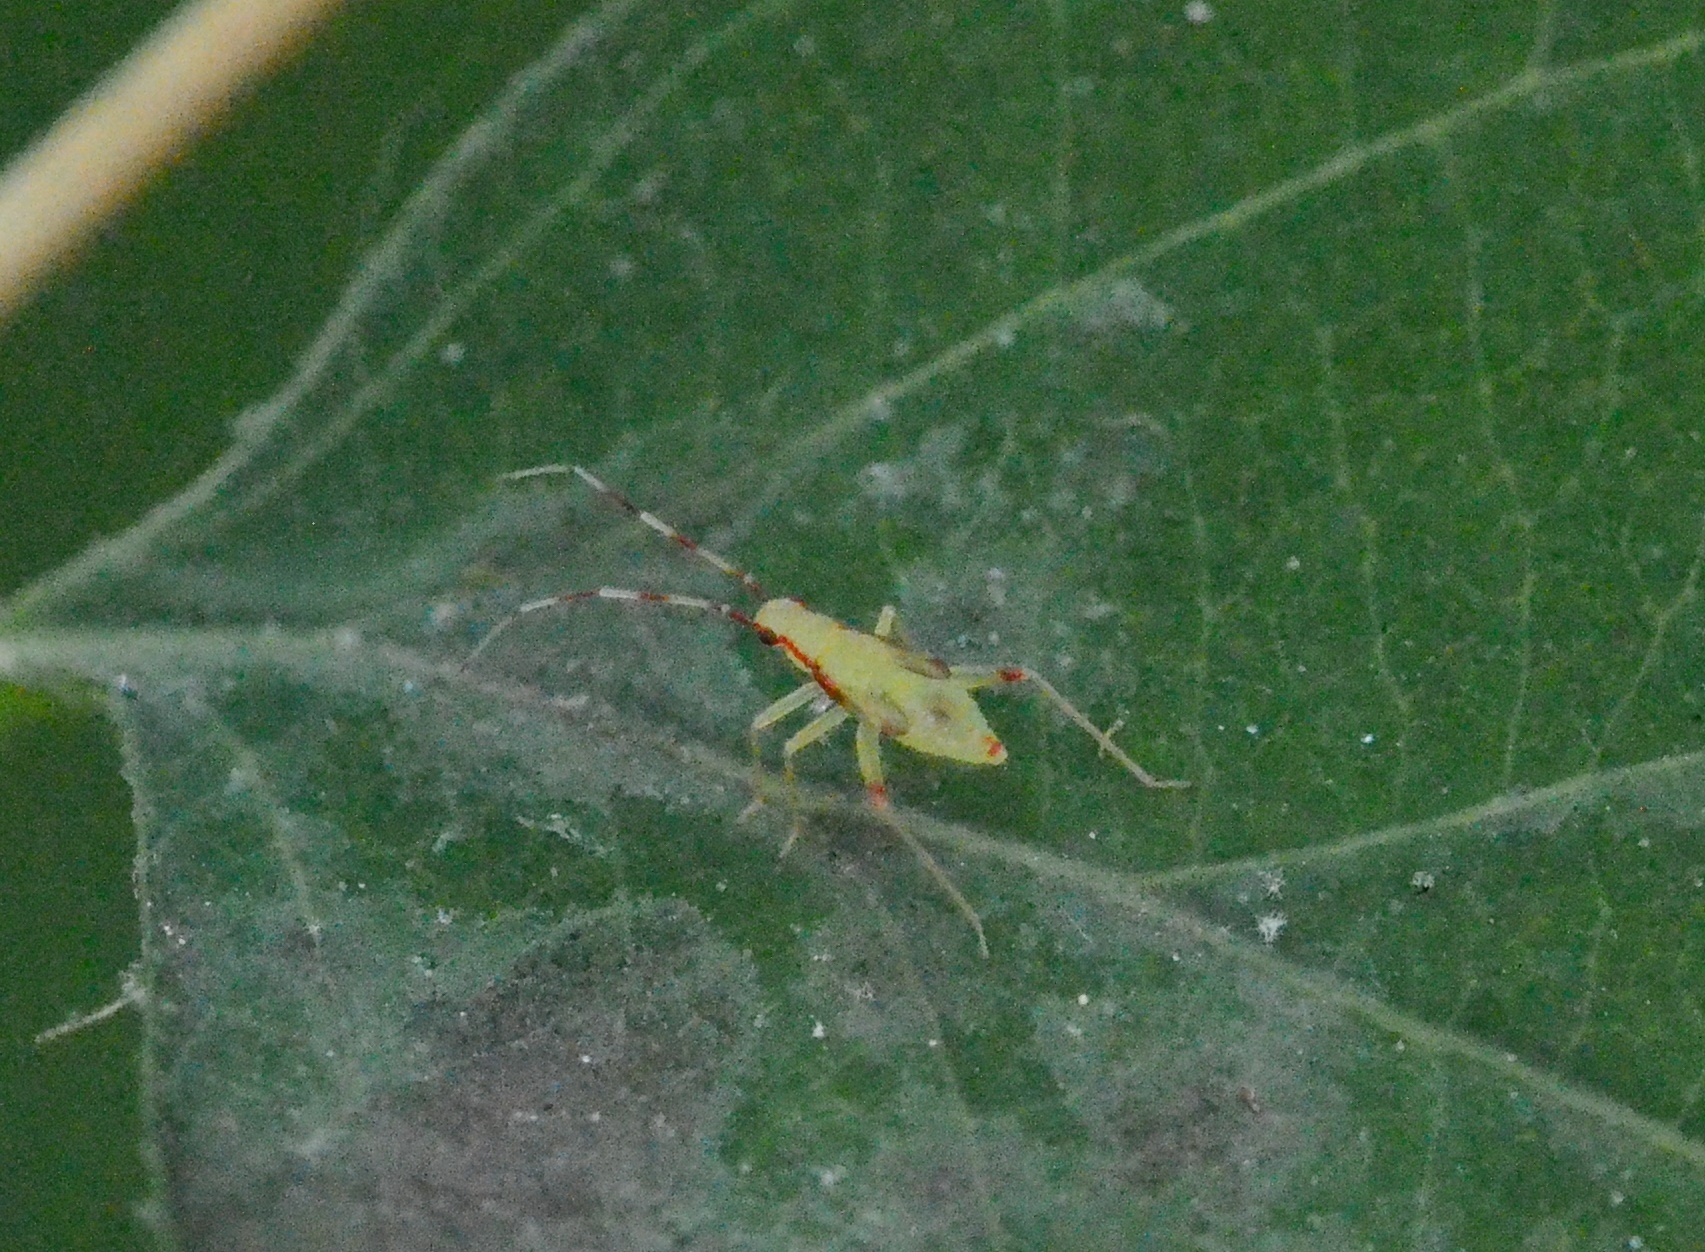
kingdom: Animalia
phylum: Arthropoda
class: Insecta
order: Hemiptera
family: Miridae
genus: Campyloneura
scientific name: Campyloneura virgula
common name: Predatory bug
